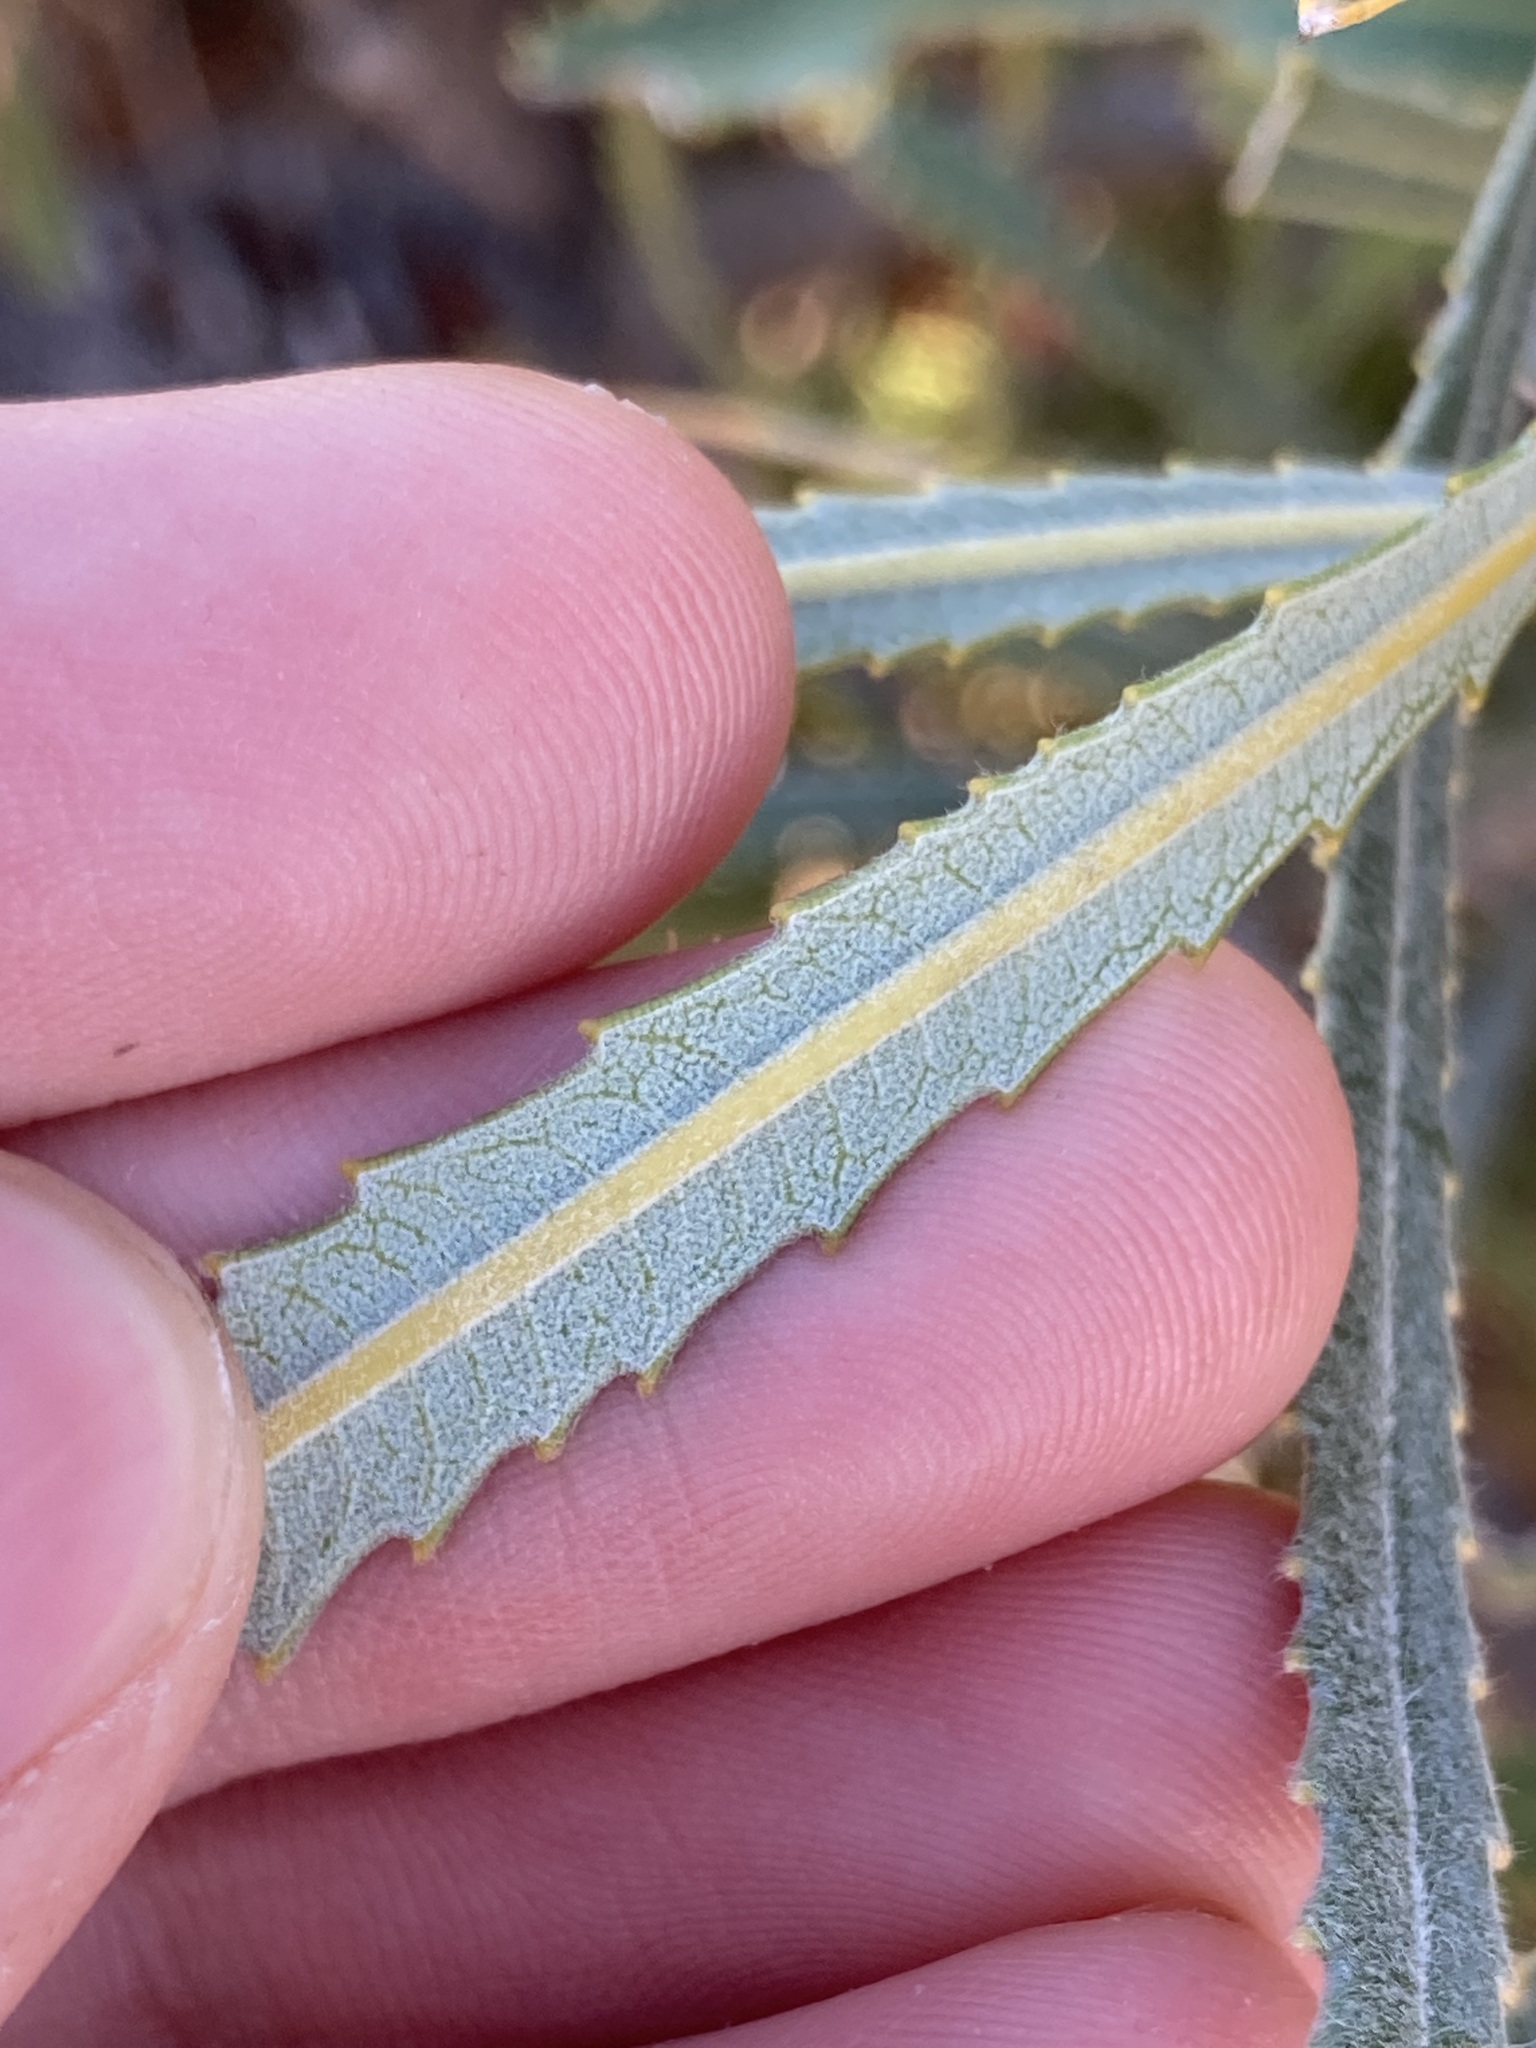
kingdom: Plantae
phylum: Tracheophyta
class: Magnoliopsida
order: Proteales
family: Proteaceae
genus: Banksia
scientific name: Banksia attenuata
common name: Coast banksia
